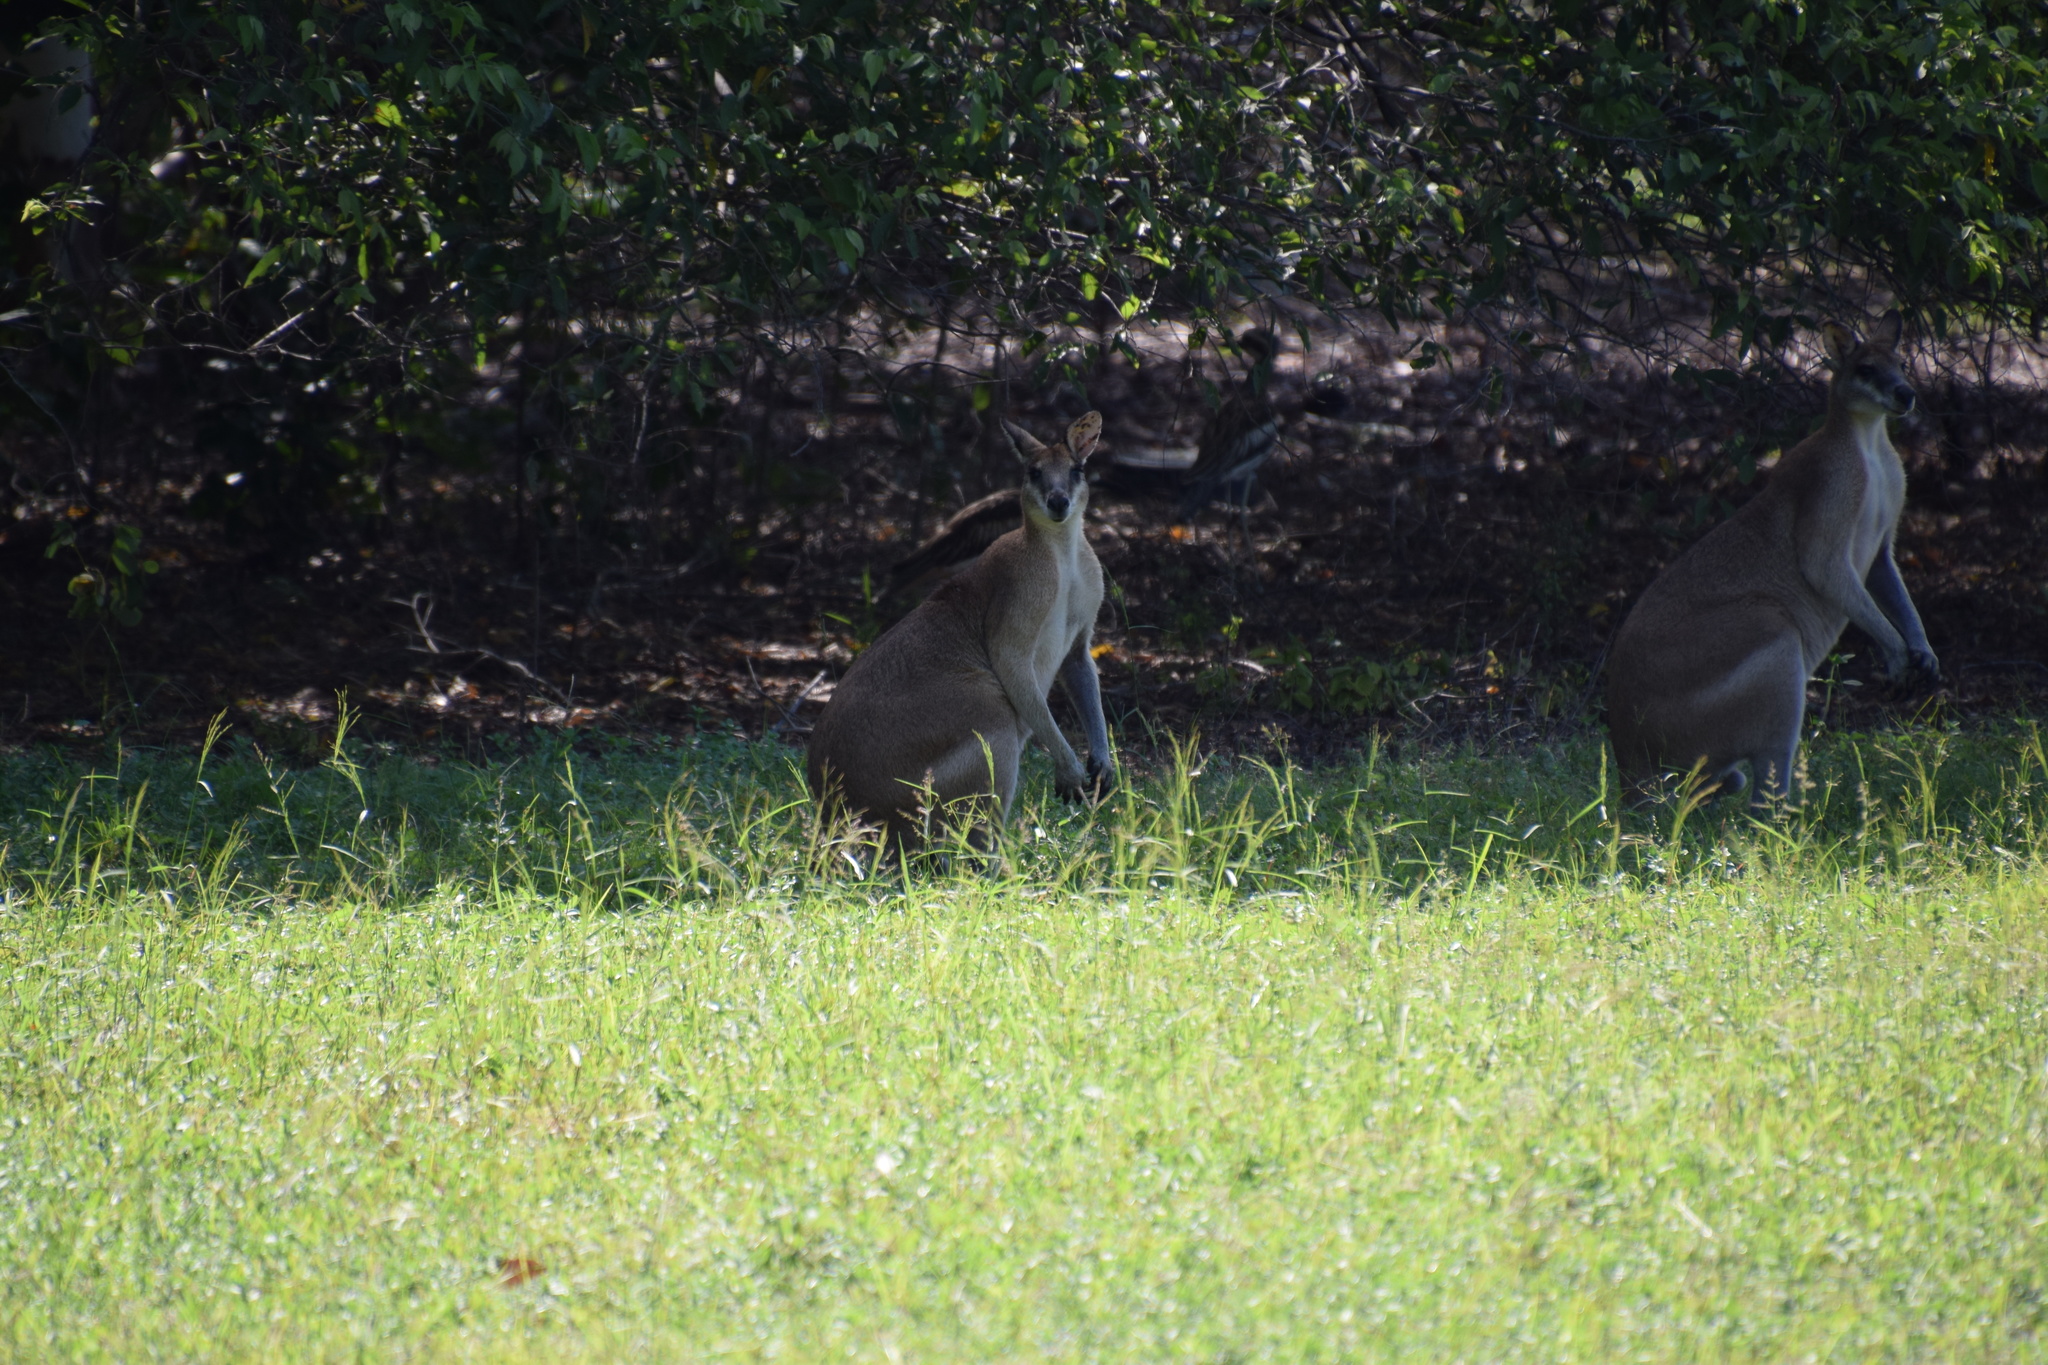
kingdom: Animalia
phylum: Chordata
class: Mammalia
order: Diprotodontia
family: Macropodidae
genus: Macropus
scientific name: Macropus agilis
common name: Agile wallaby
